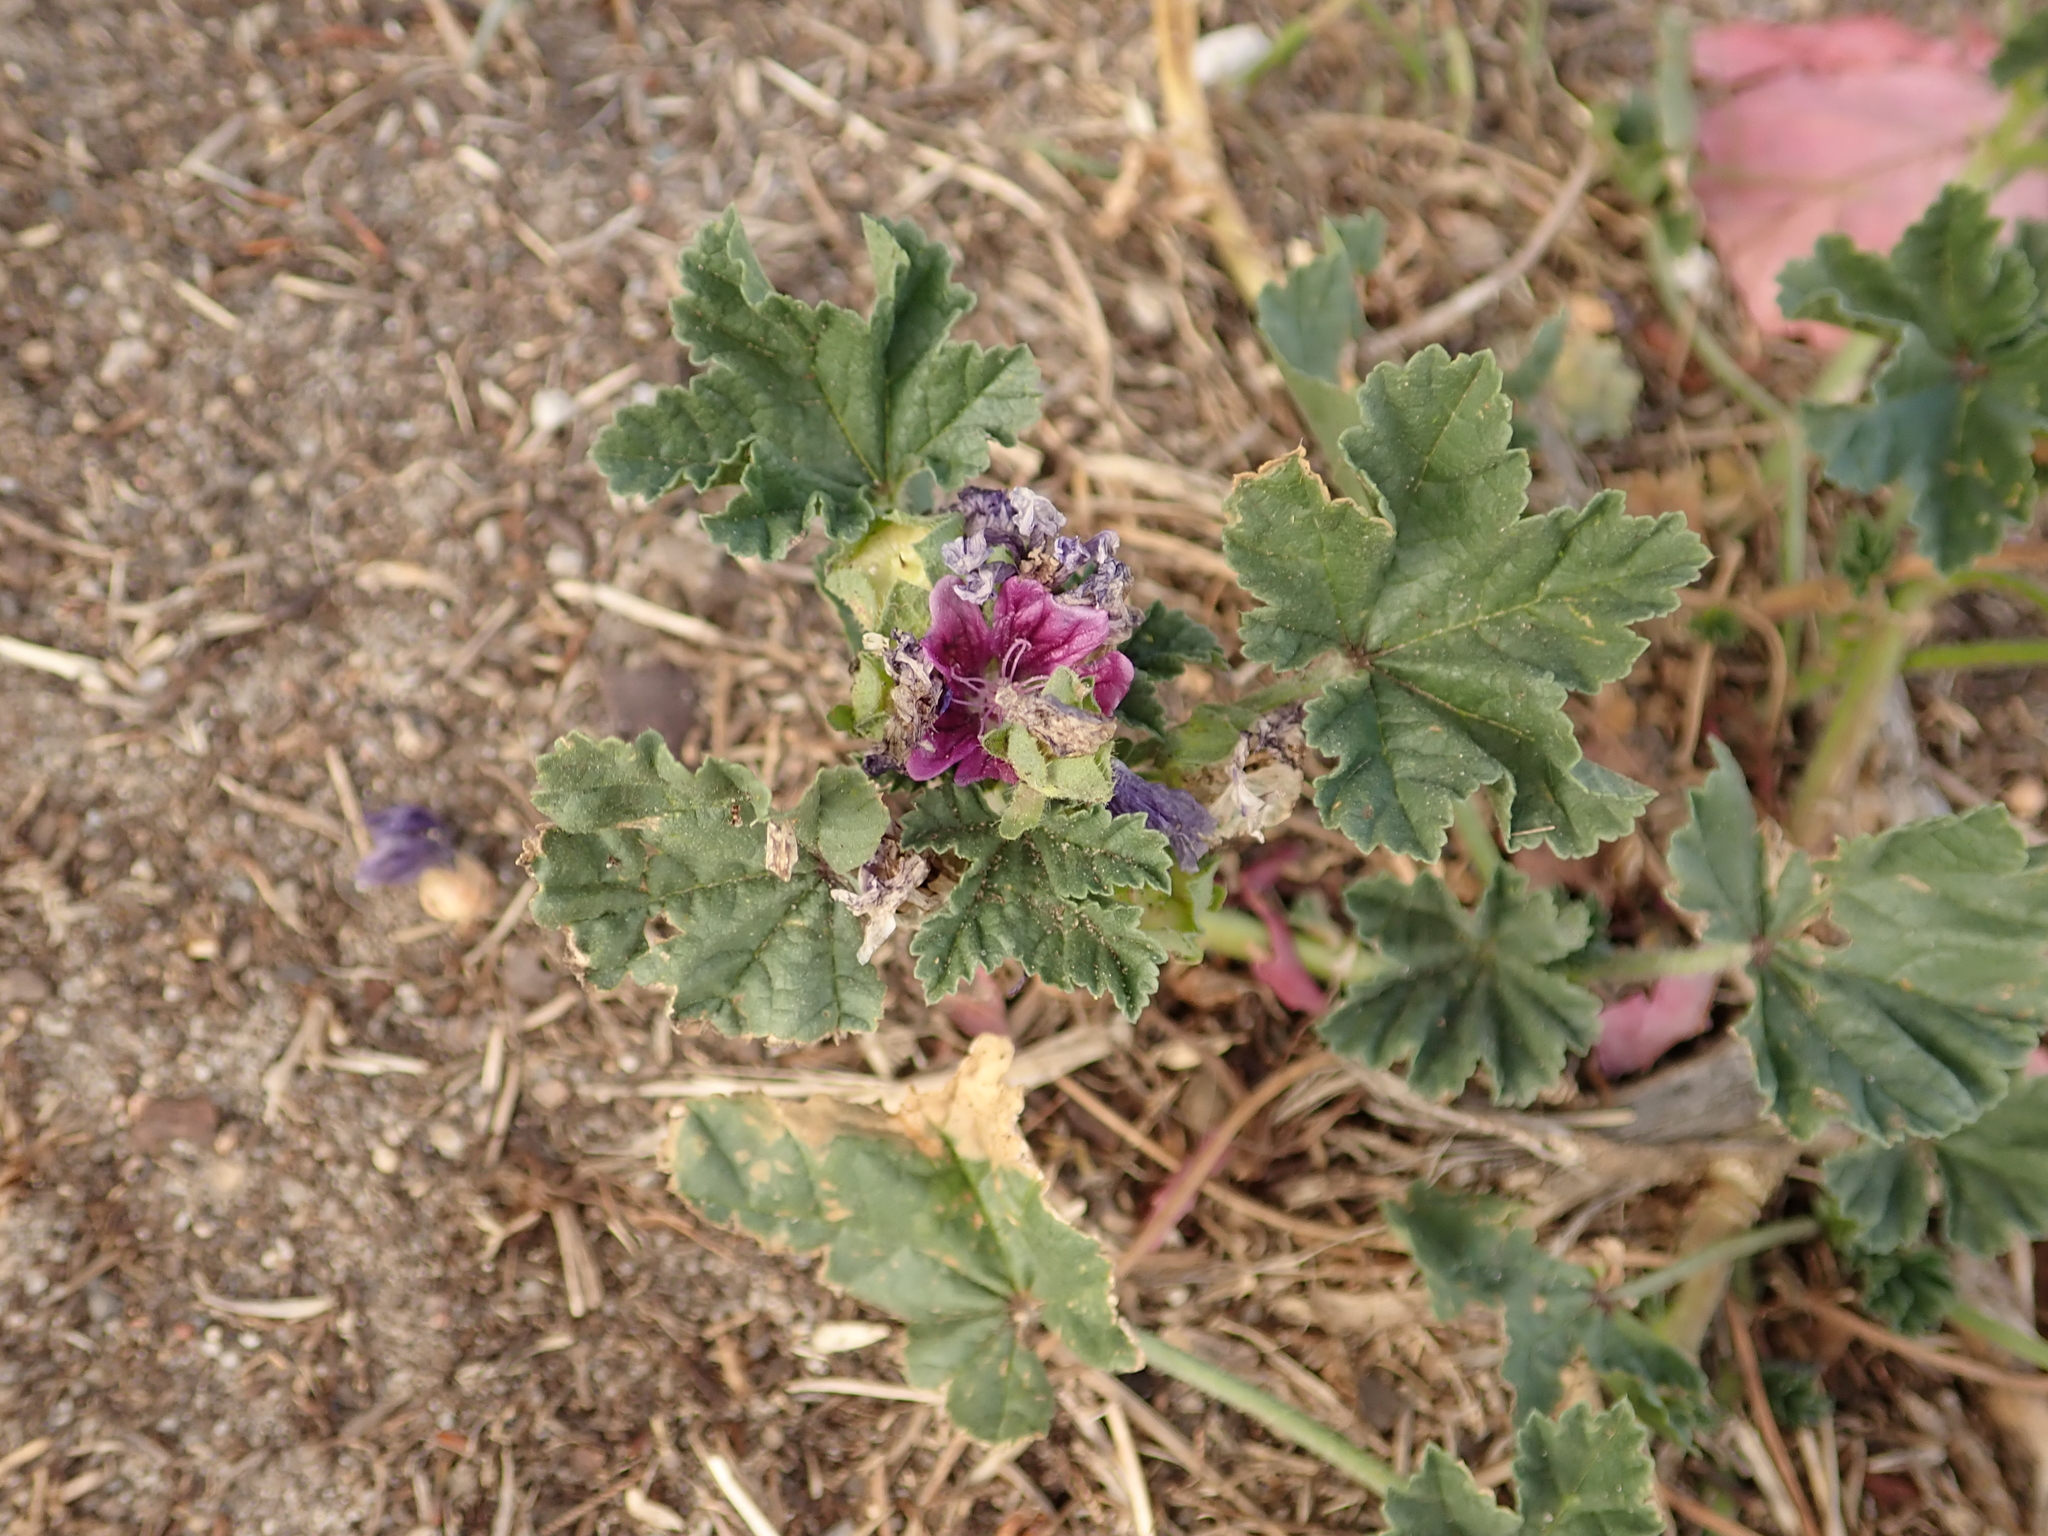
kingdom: Plantae
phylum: Tracheophyta
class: Magnoliopsida
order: Malvales
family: Malvaceae
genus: Malva
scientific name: Malva sylvestris
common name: Common mallow
